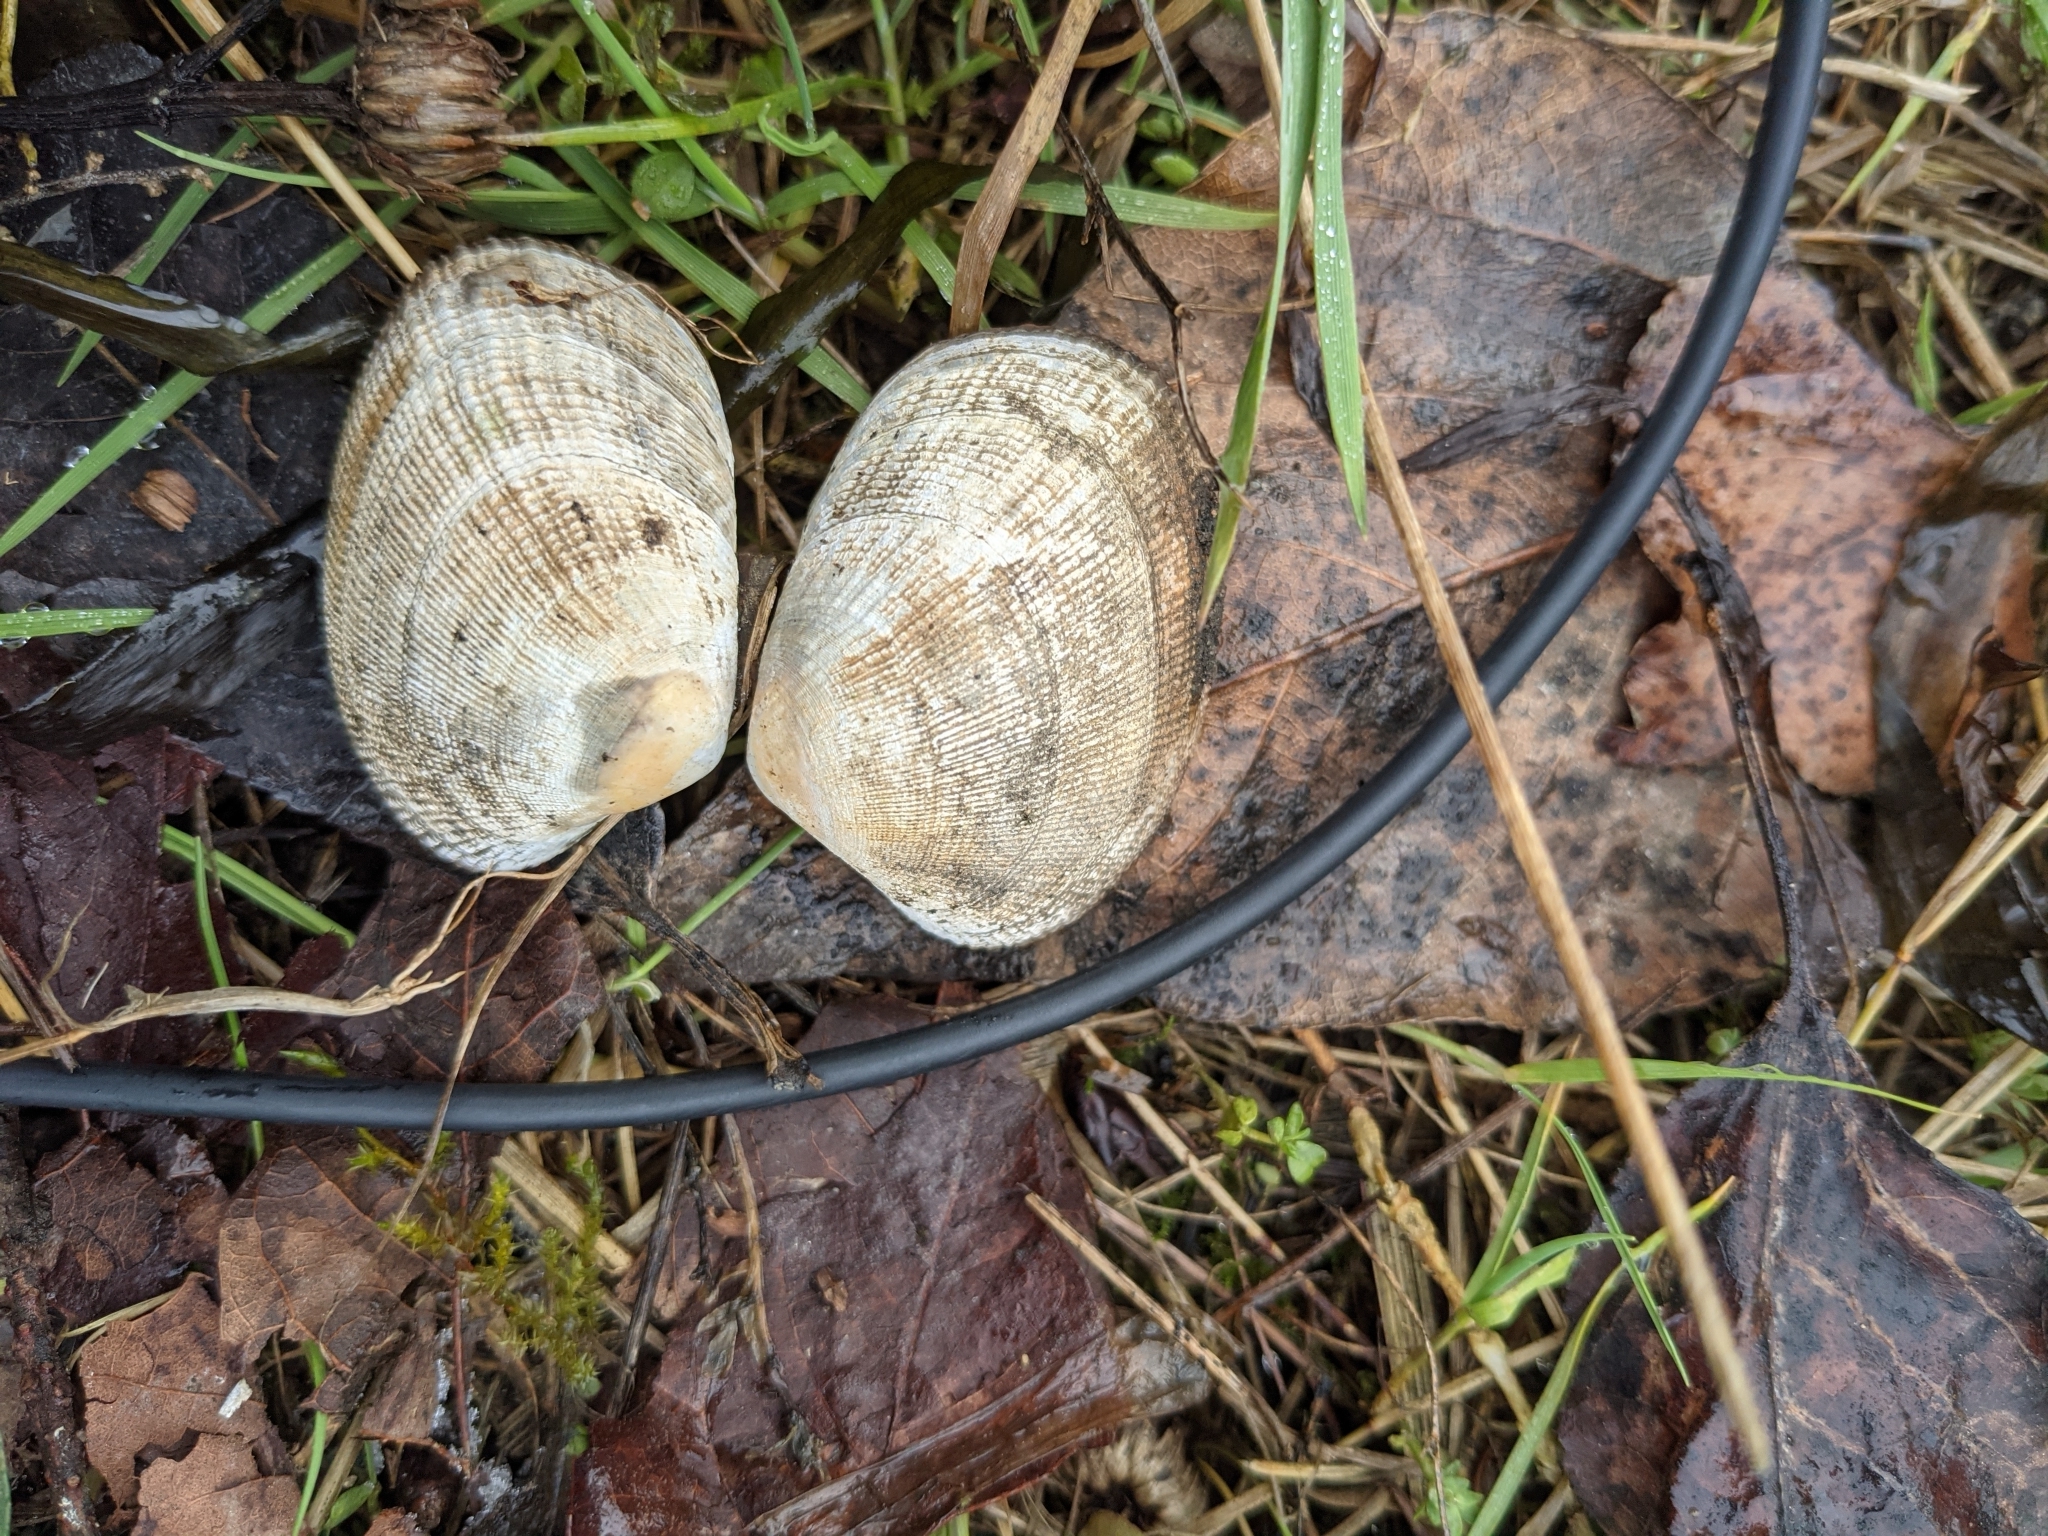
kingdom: Animalia
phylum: Mollusca
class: Bivalvia
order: Venerida
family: Veneridae
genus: Ruditapes
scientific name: Ruditapes philippinarum
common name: Manila clam
